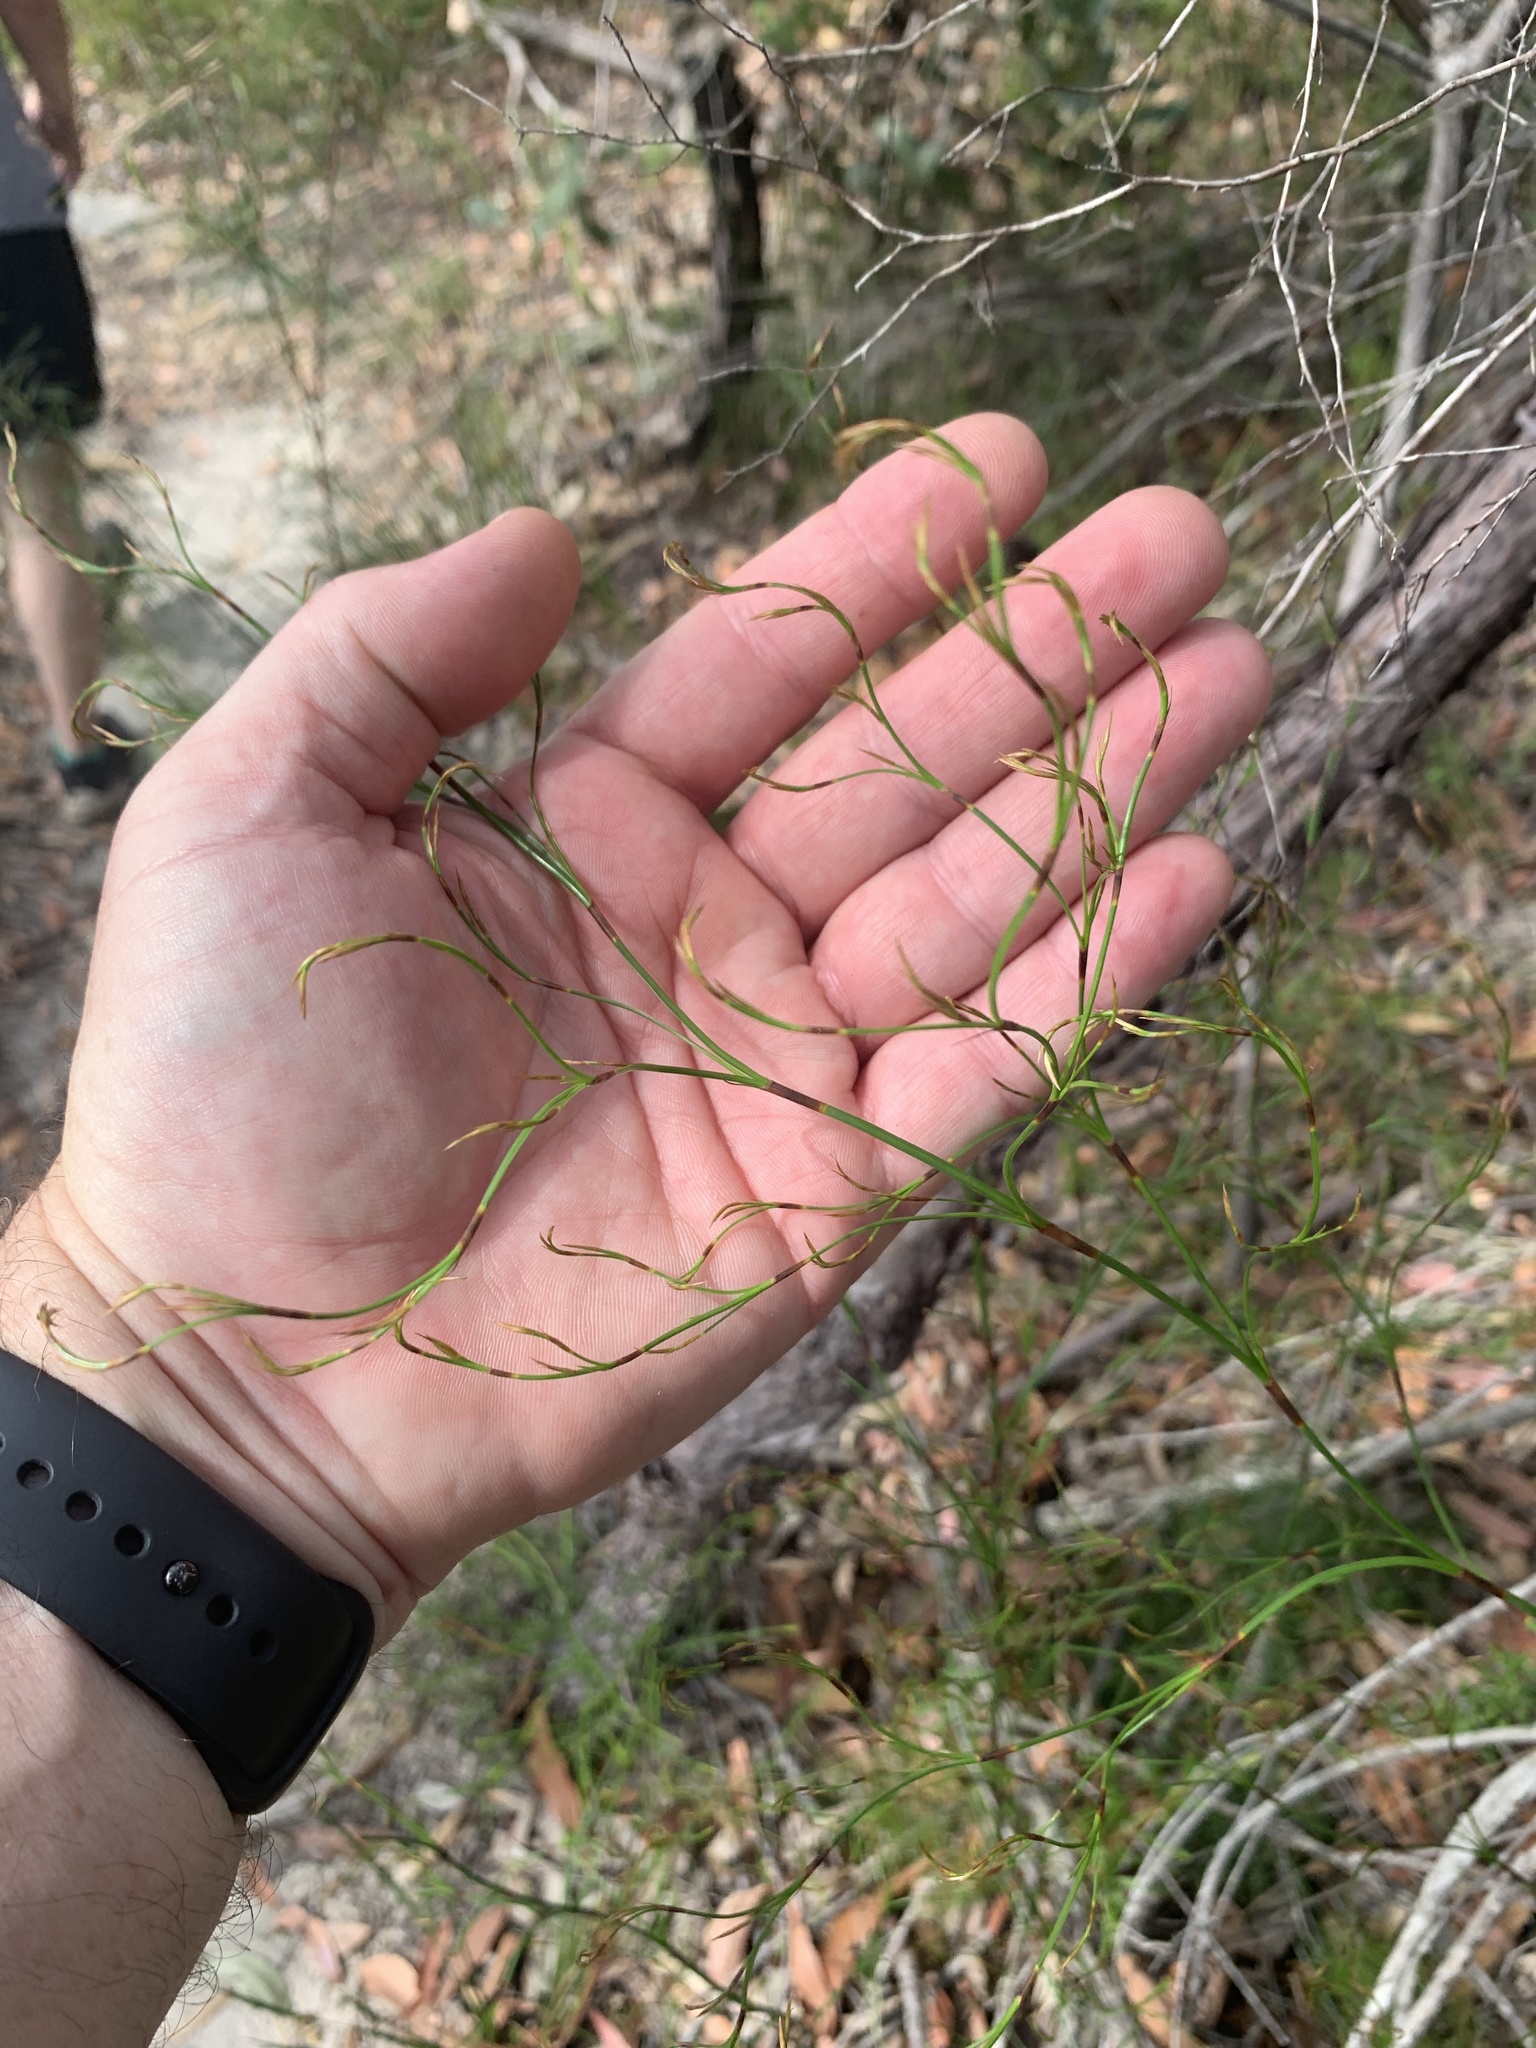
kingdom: Plantae
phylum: Tracheophyta
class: Liliopsida
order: Poales
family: Cyperaceae
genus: Caustis
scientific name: Caustis flexuosa
